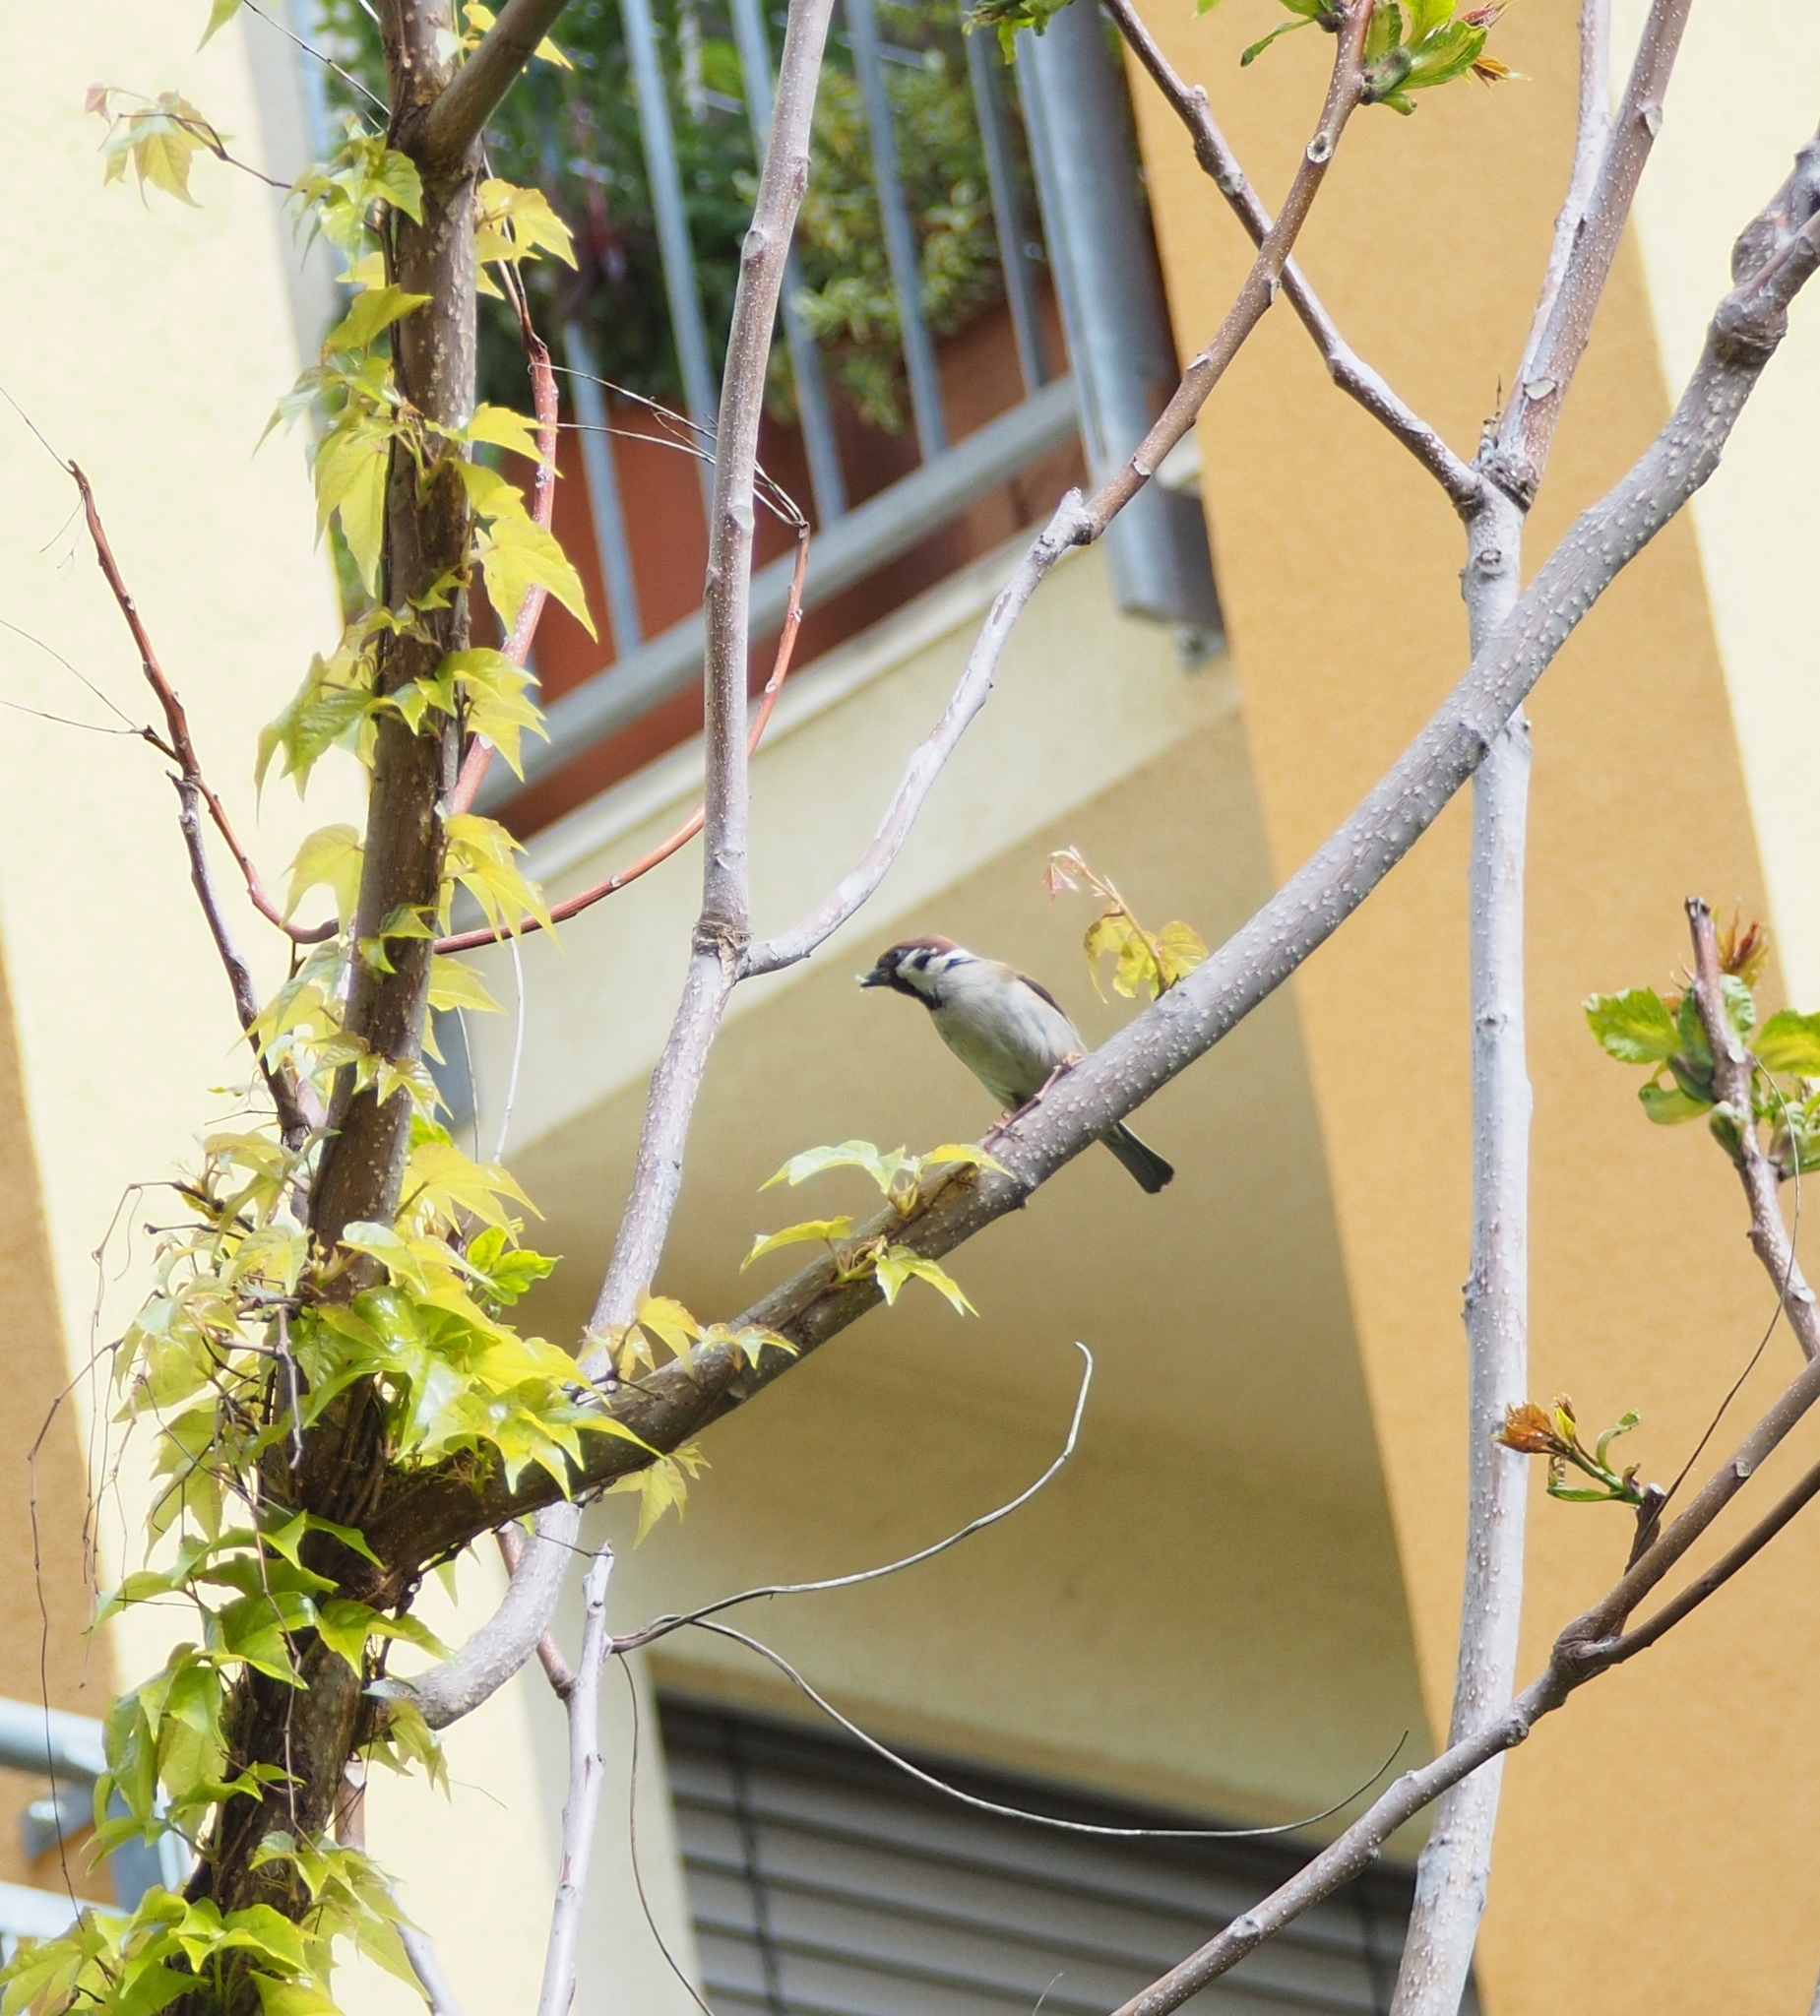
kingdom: Animalia
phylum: Chordata
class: Aves
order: Passeriformes
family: Passeridae
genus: Passer
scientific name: Passer montanus
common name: Eurasian tree sparrow
